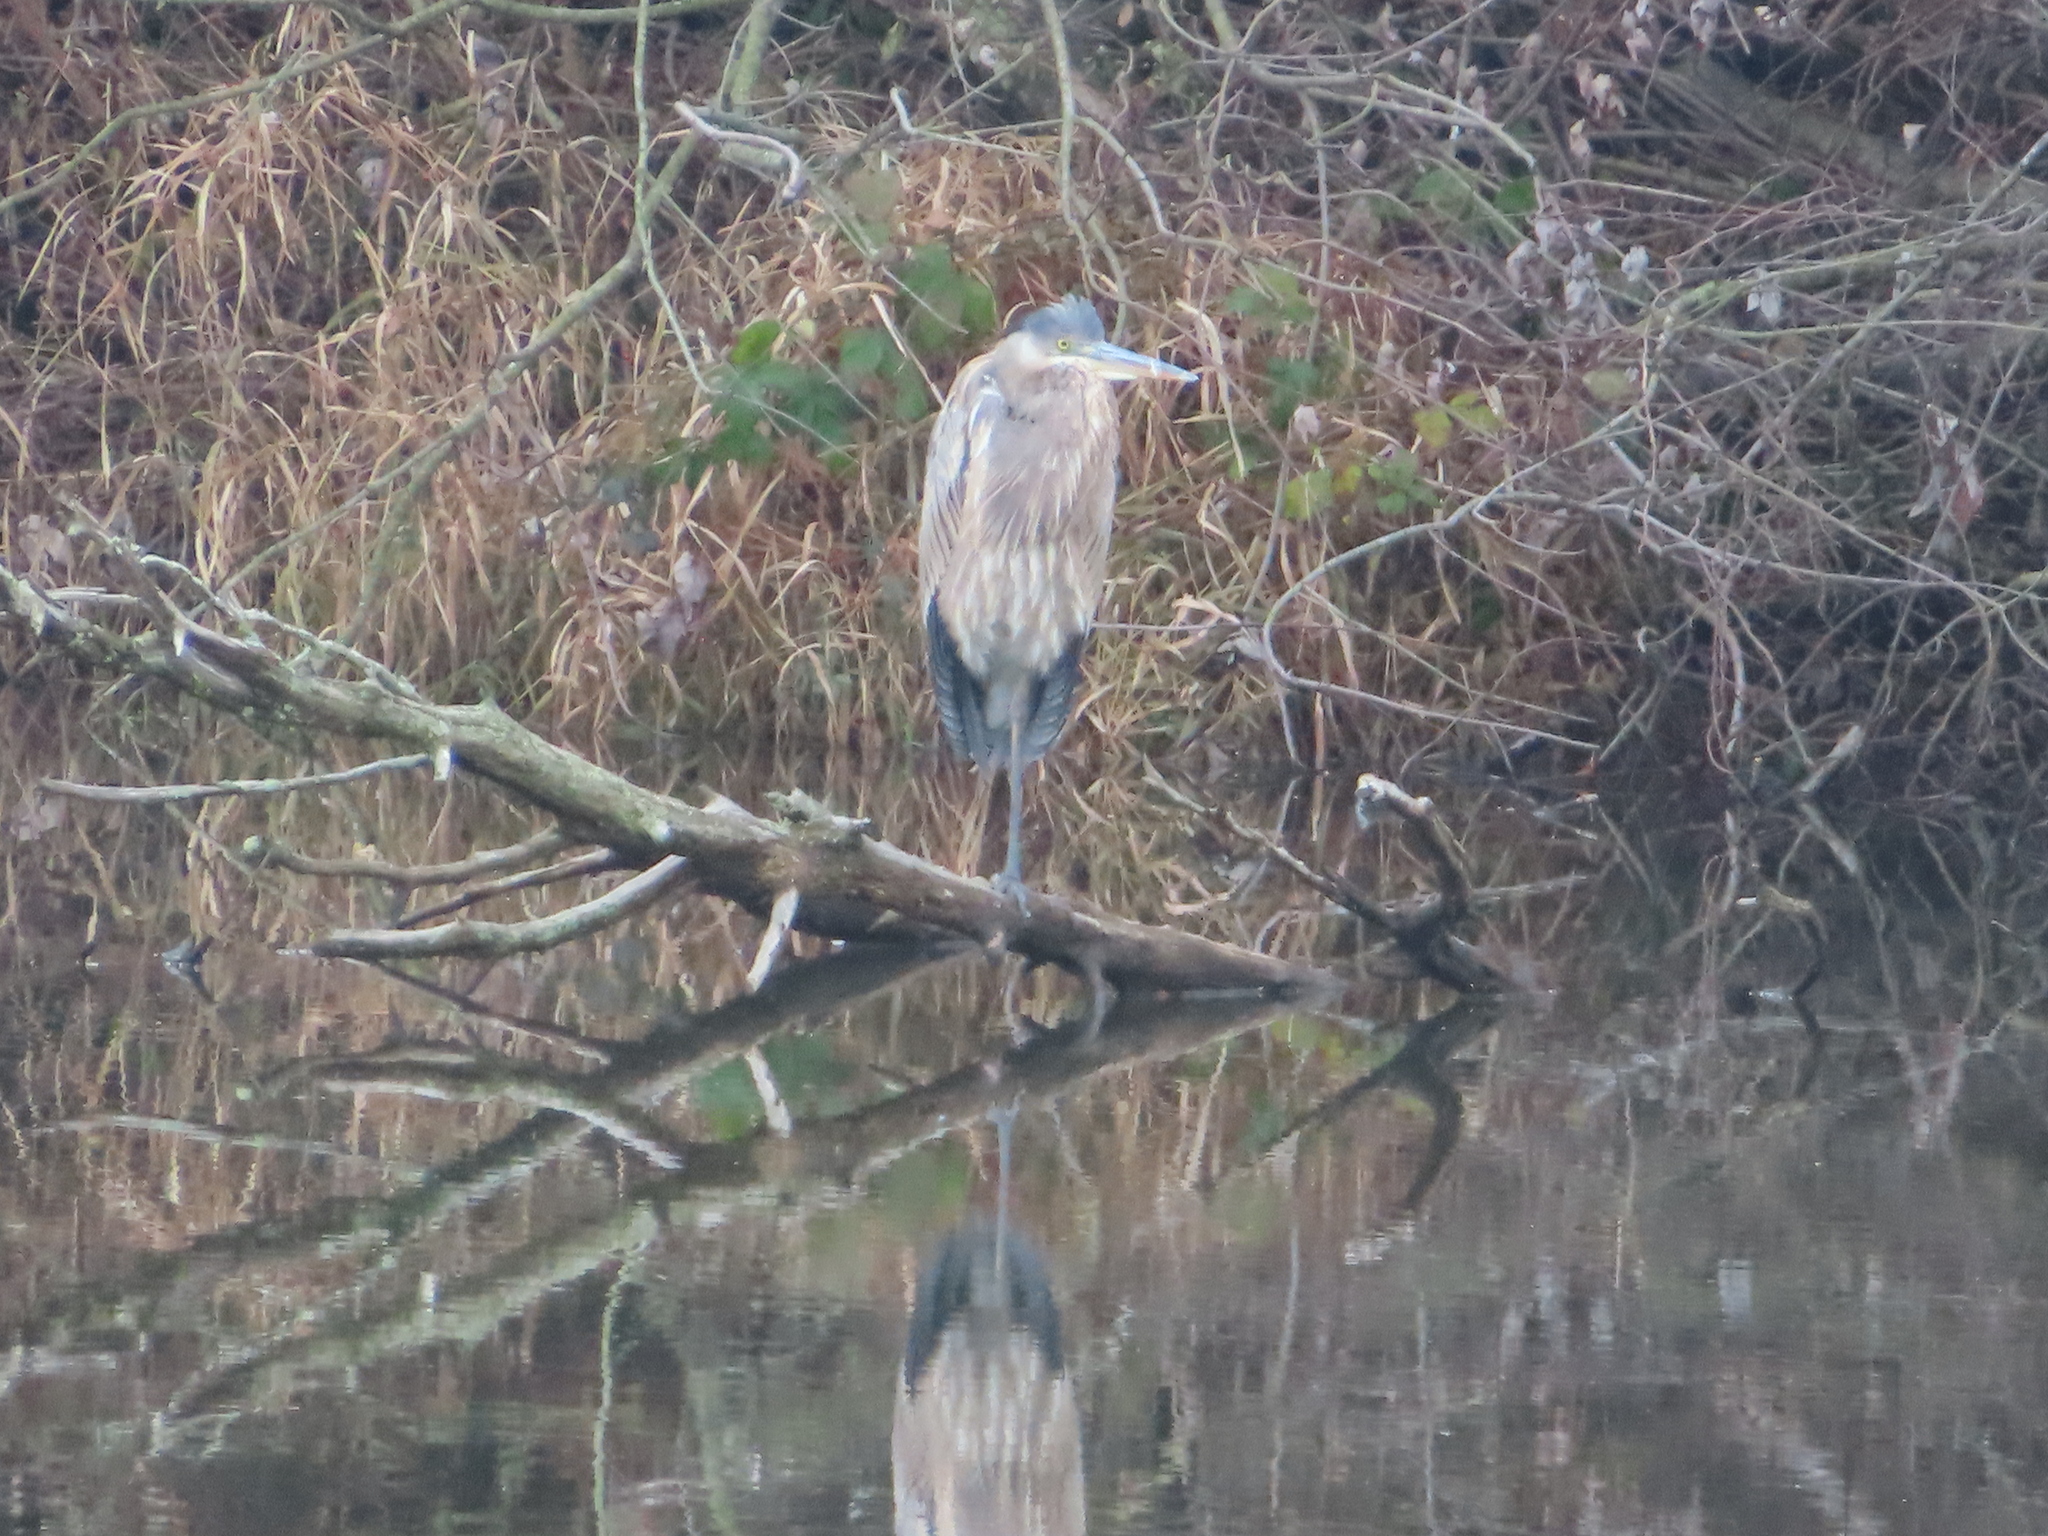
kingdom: Animalia
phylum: Chordata
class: Aves
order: Pelecaniformes
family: Ardeidae
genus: Ardea
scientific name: Ardea herodias
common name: Great blue heron
